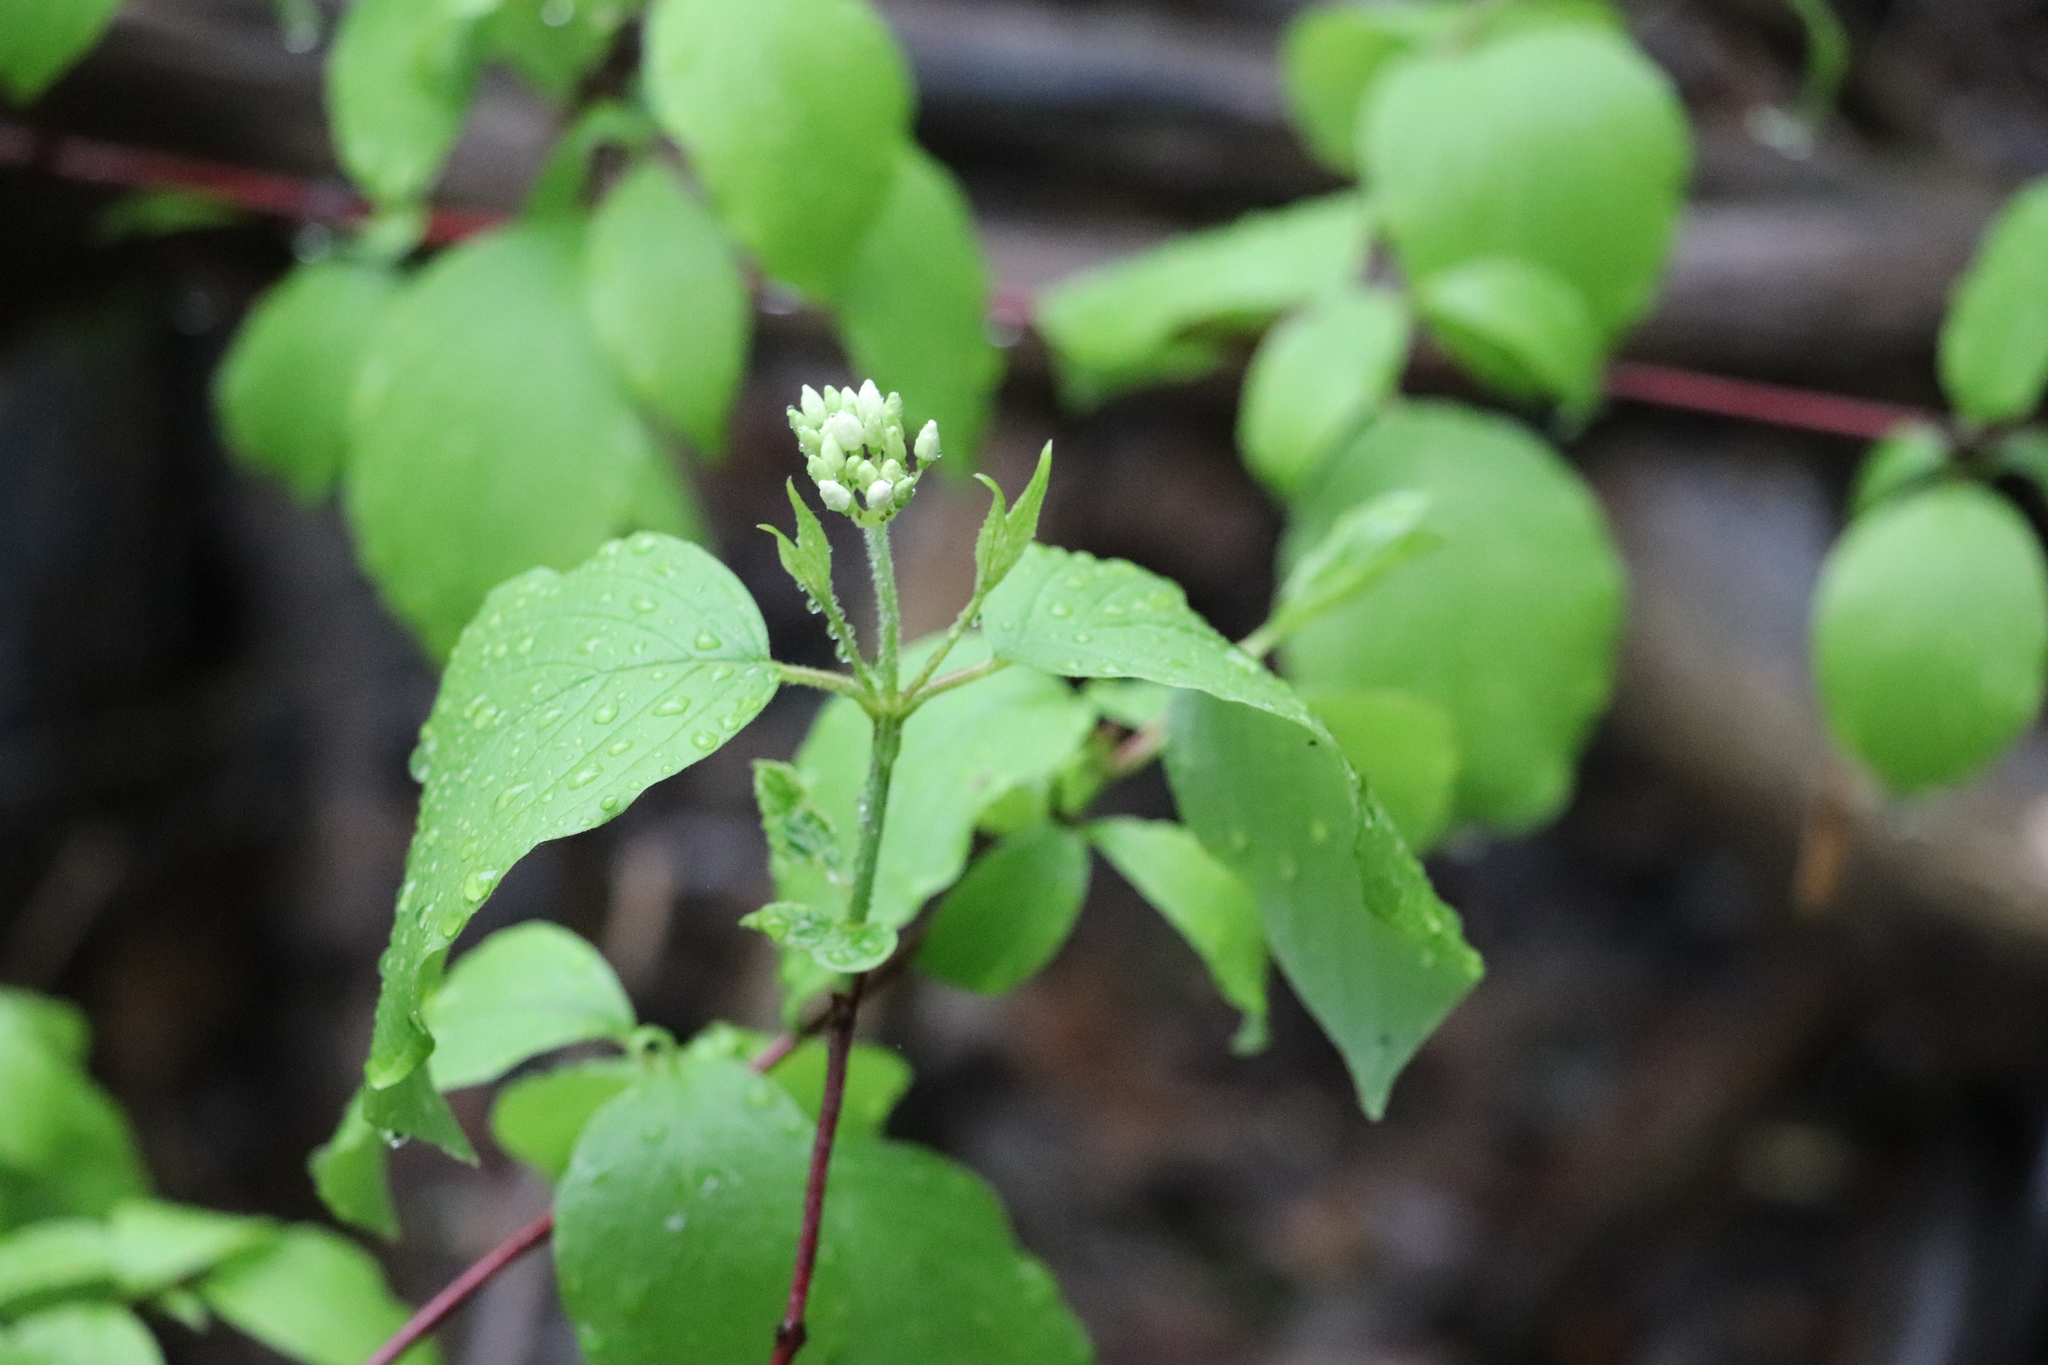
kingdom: Plantae
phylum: Tracheophyta
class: Magnoliopsida
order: Cornales
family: Cornaceae
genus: Cornus
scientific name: Cornus alba
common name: White dogwood
